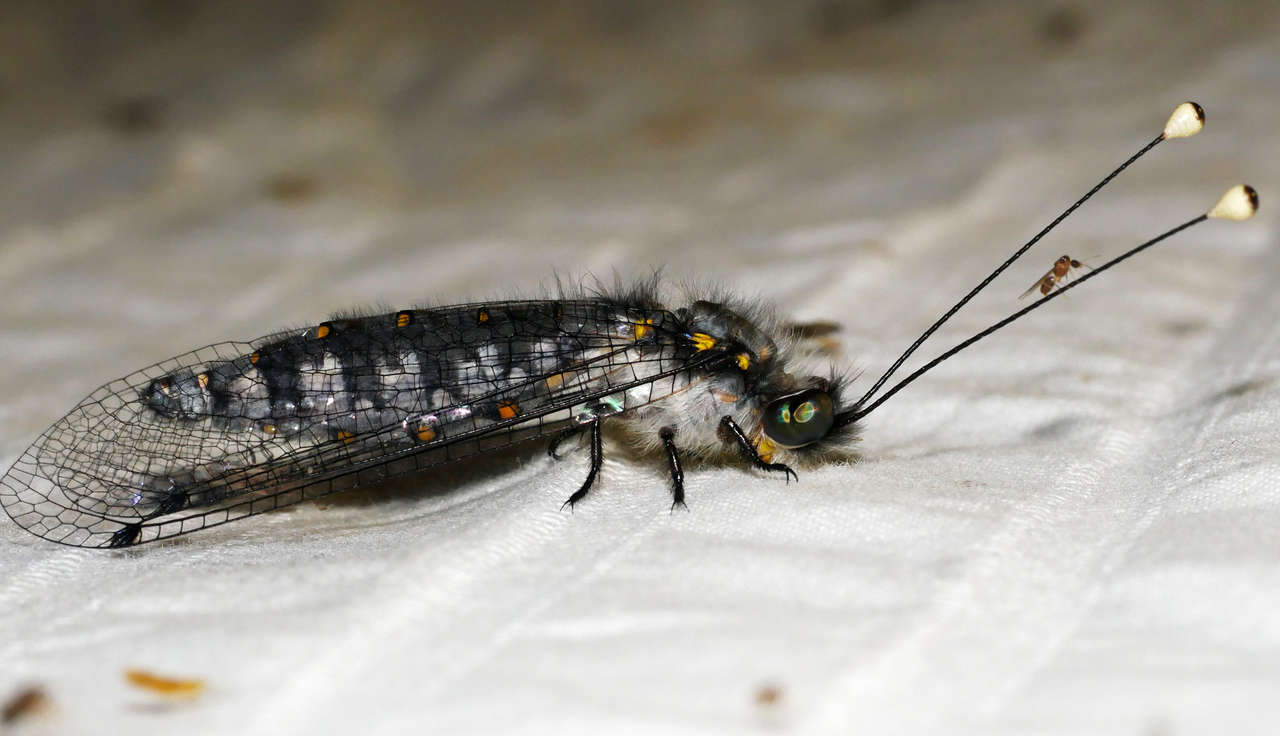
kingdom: Animalia
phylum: Arthropoda
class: Insecta
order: Neuroptera
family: Ascalaphidae
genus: Suhpalacsa
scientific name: Suhpalacsa inconspicuus
